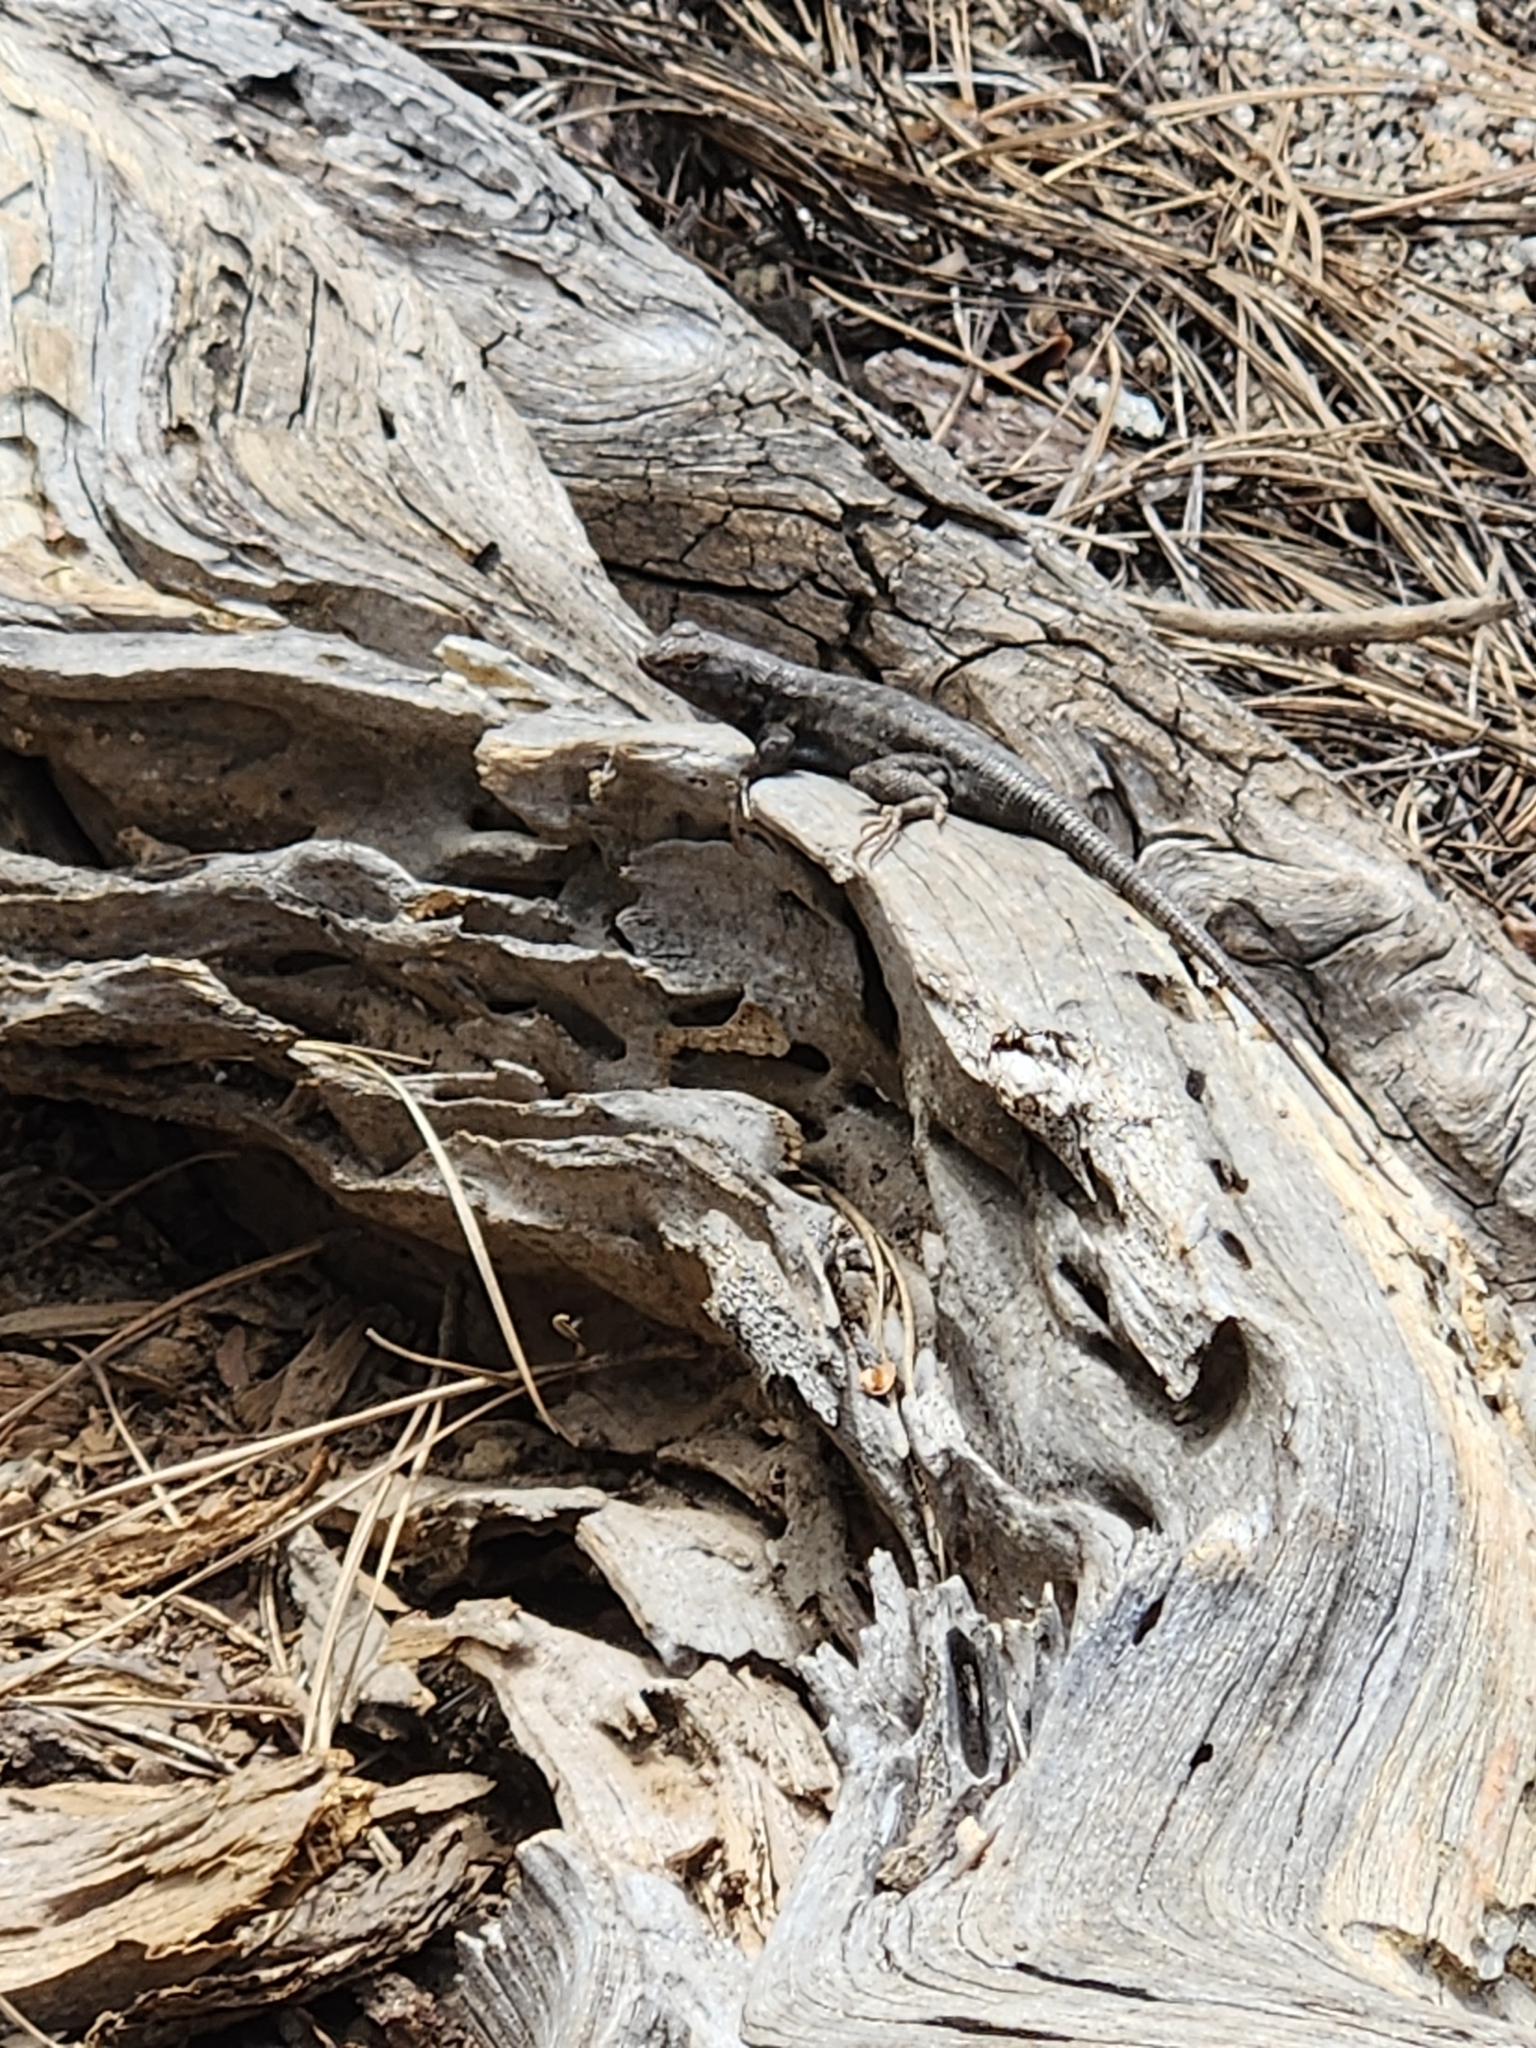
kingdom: Animalia
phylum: Chordata
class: Squamata
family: Phrynosomatidae
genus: Sceloporus
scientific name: Sceloporus occidentalis
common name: Western fence lizard
